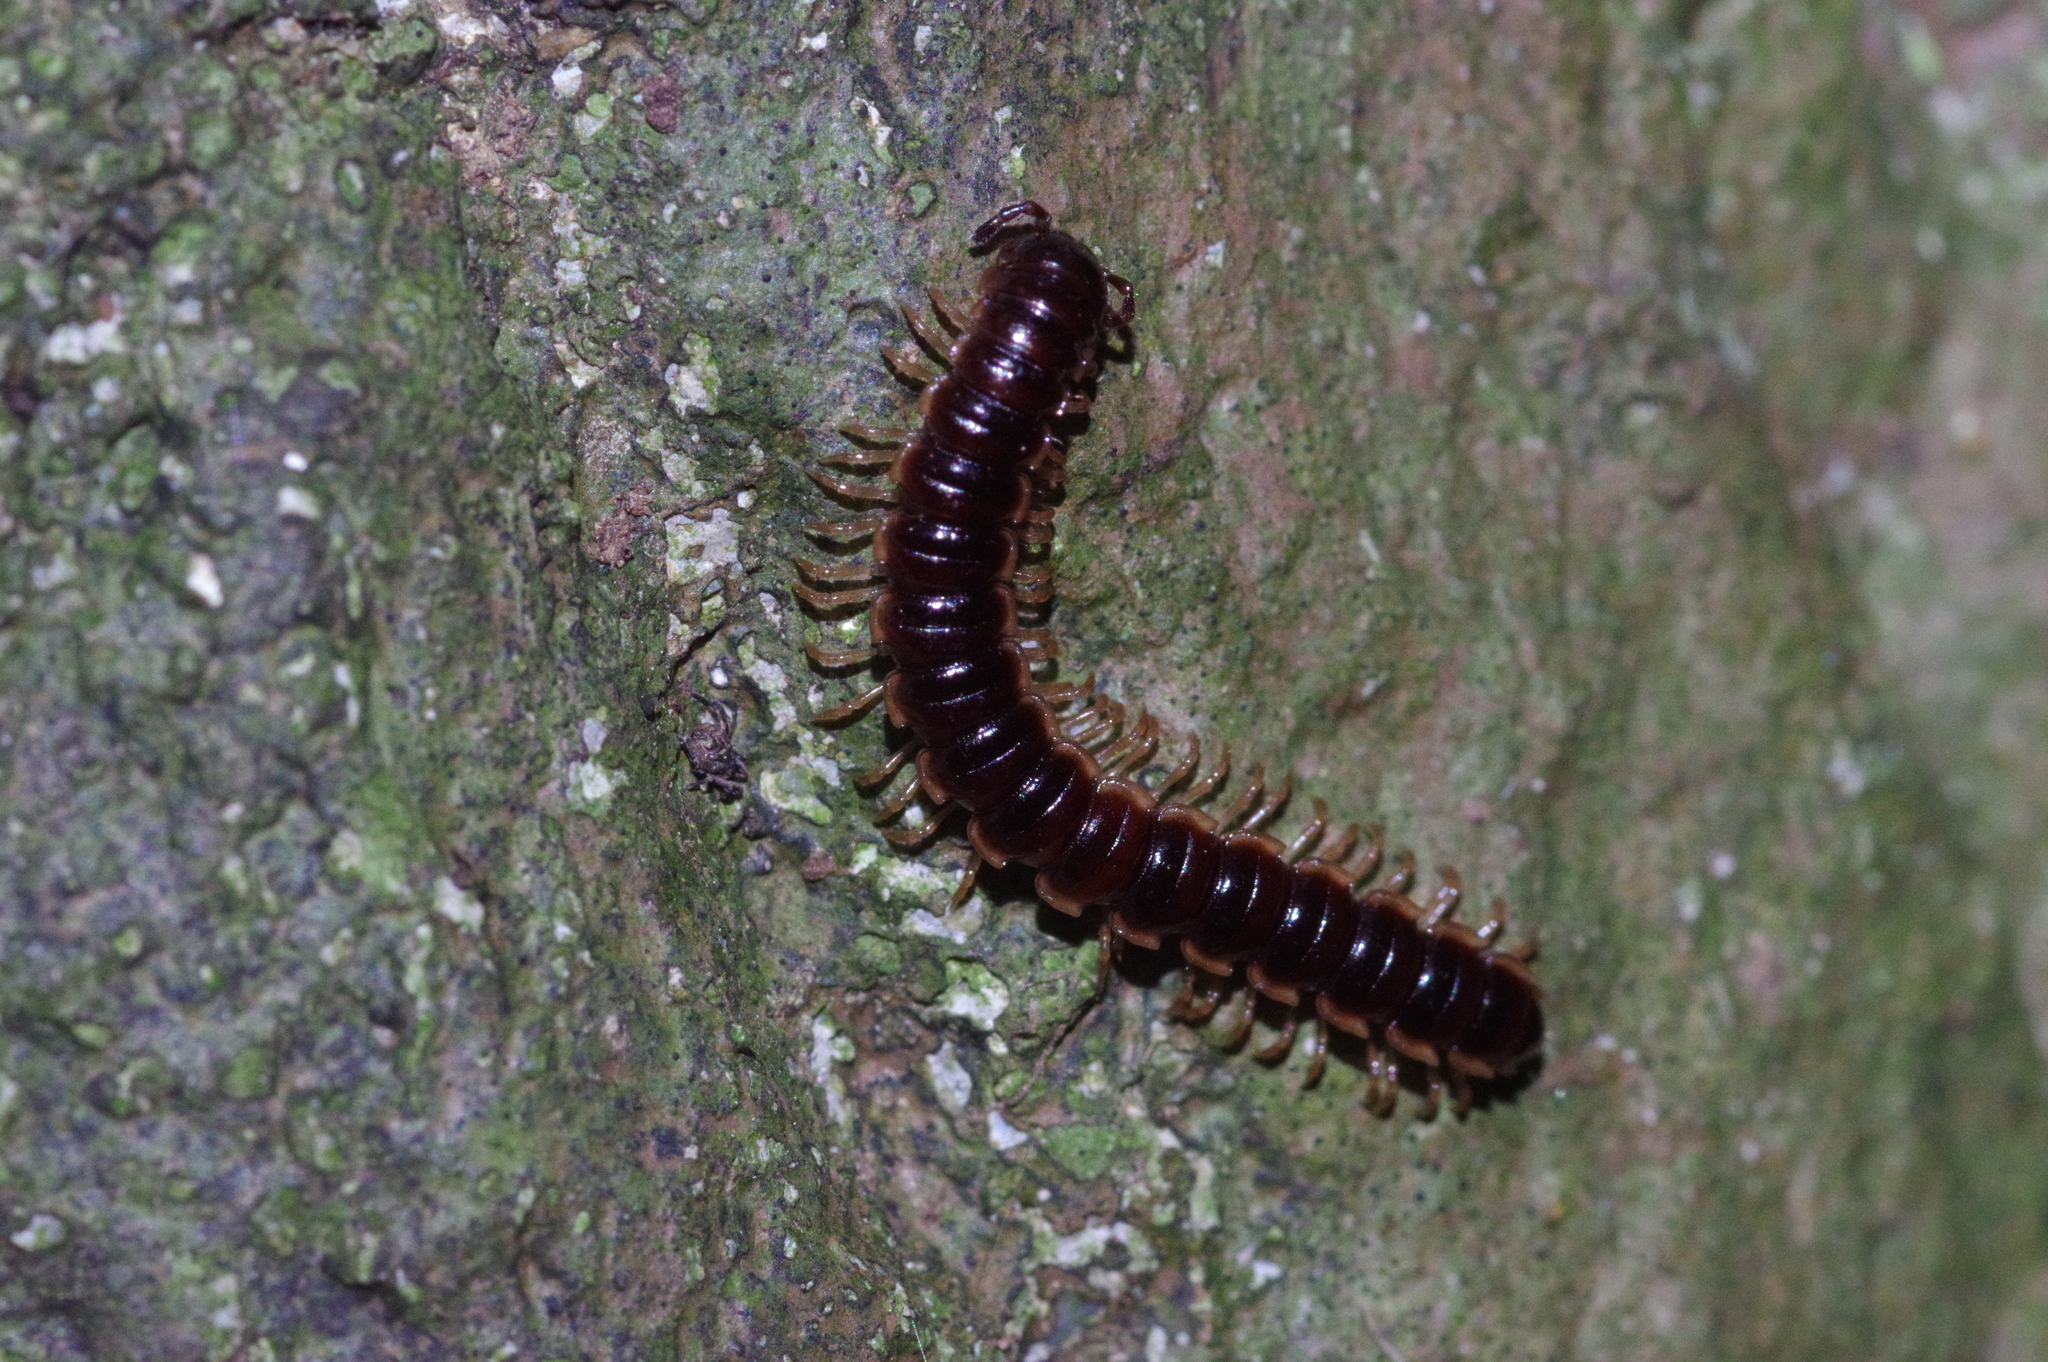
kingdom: Animalia
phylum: Arthropoda
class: Diplopoda
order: Polydesmida
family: Paradoxosomatidae
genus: Oxidus
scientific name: Oxidus gracilis
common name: Greenhouse millipede
